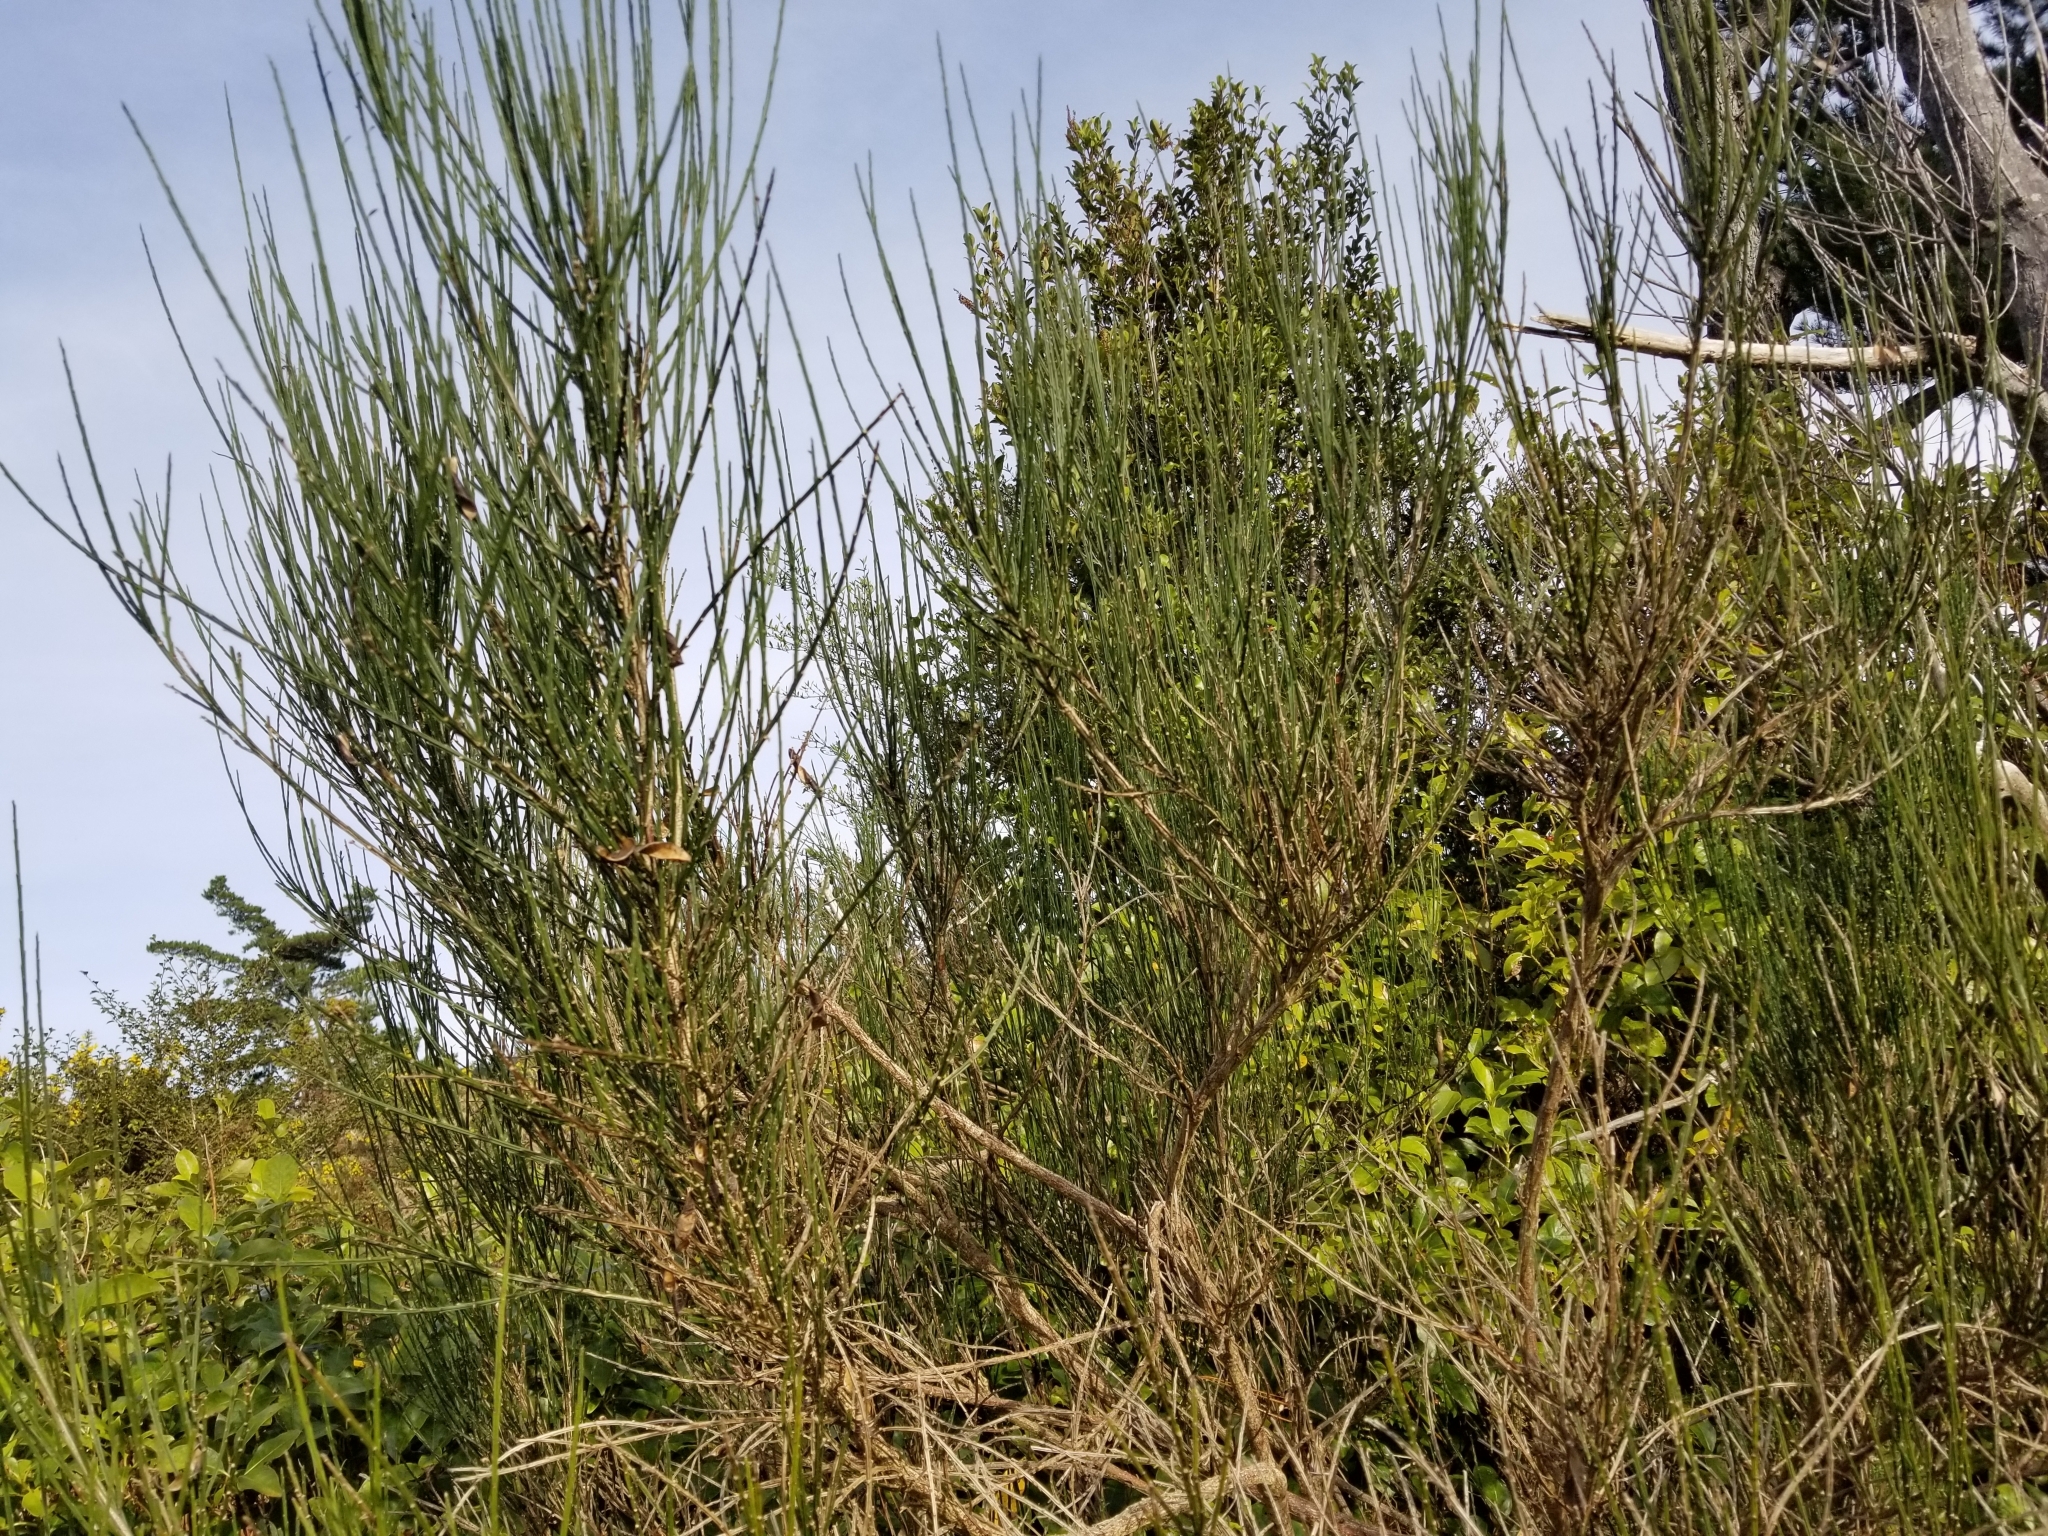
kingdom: Plantae
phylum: Tracheophyta
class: Magnoliopsida
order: Fabales
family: Fabaceae
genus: Cytisus
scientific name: Cytisus scoparius
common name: Scotch broom
